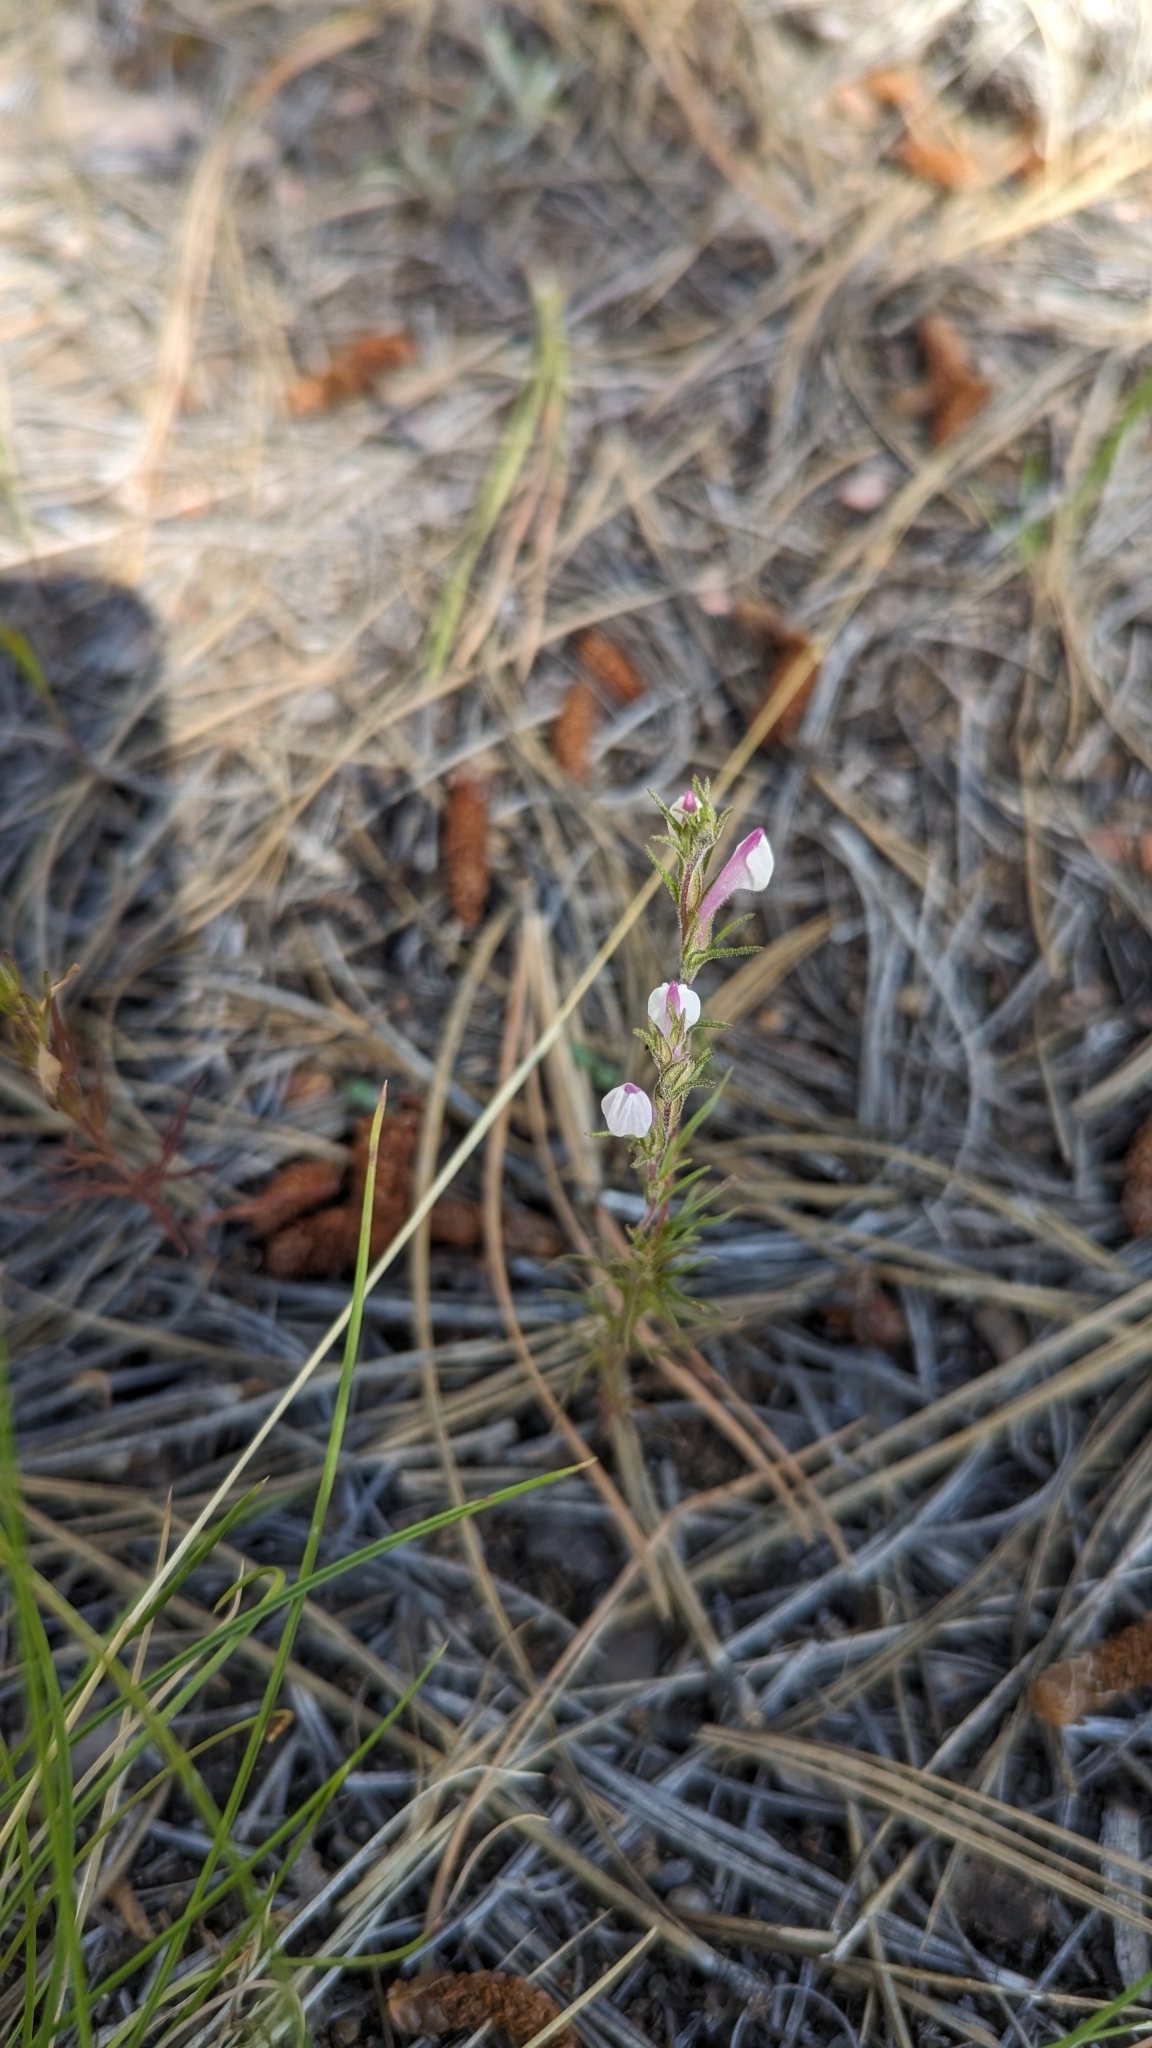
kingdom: Plantae
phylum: Tracheophyta
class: Magnoliopsida
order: Lamiales
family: Orobanchaceae
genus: Orthocarpus
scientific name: Orthocarpus purpureoalbus
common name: Violet owl-clover
